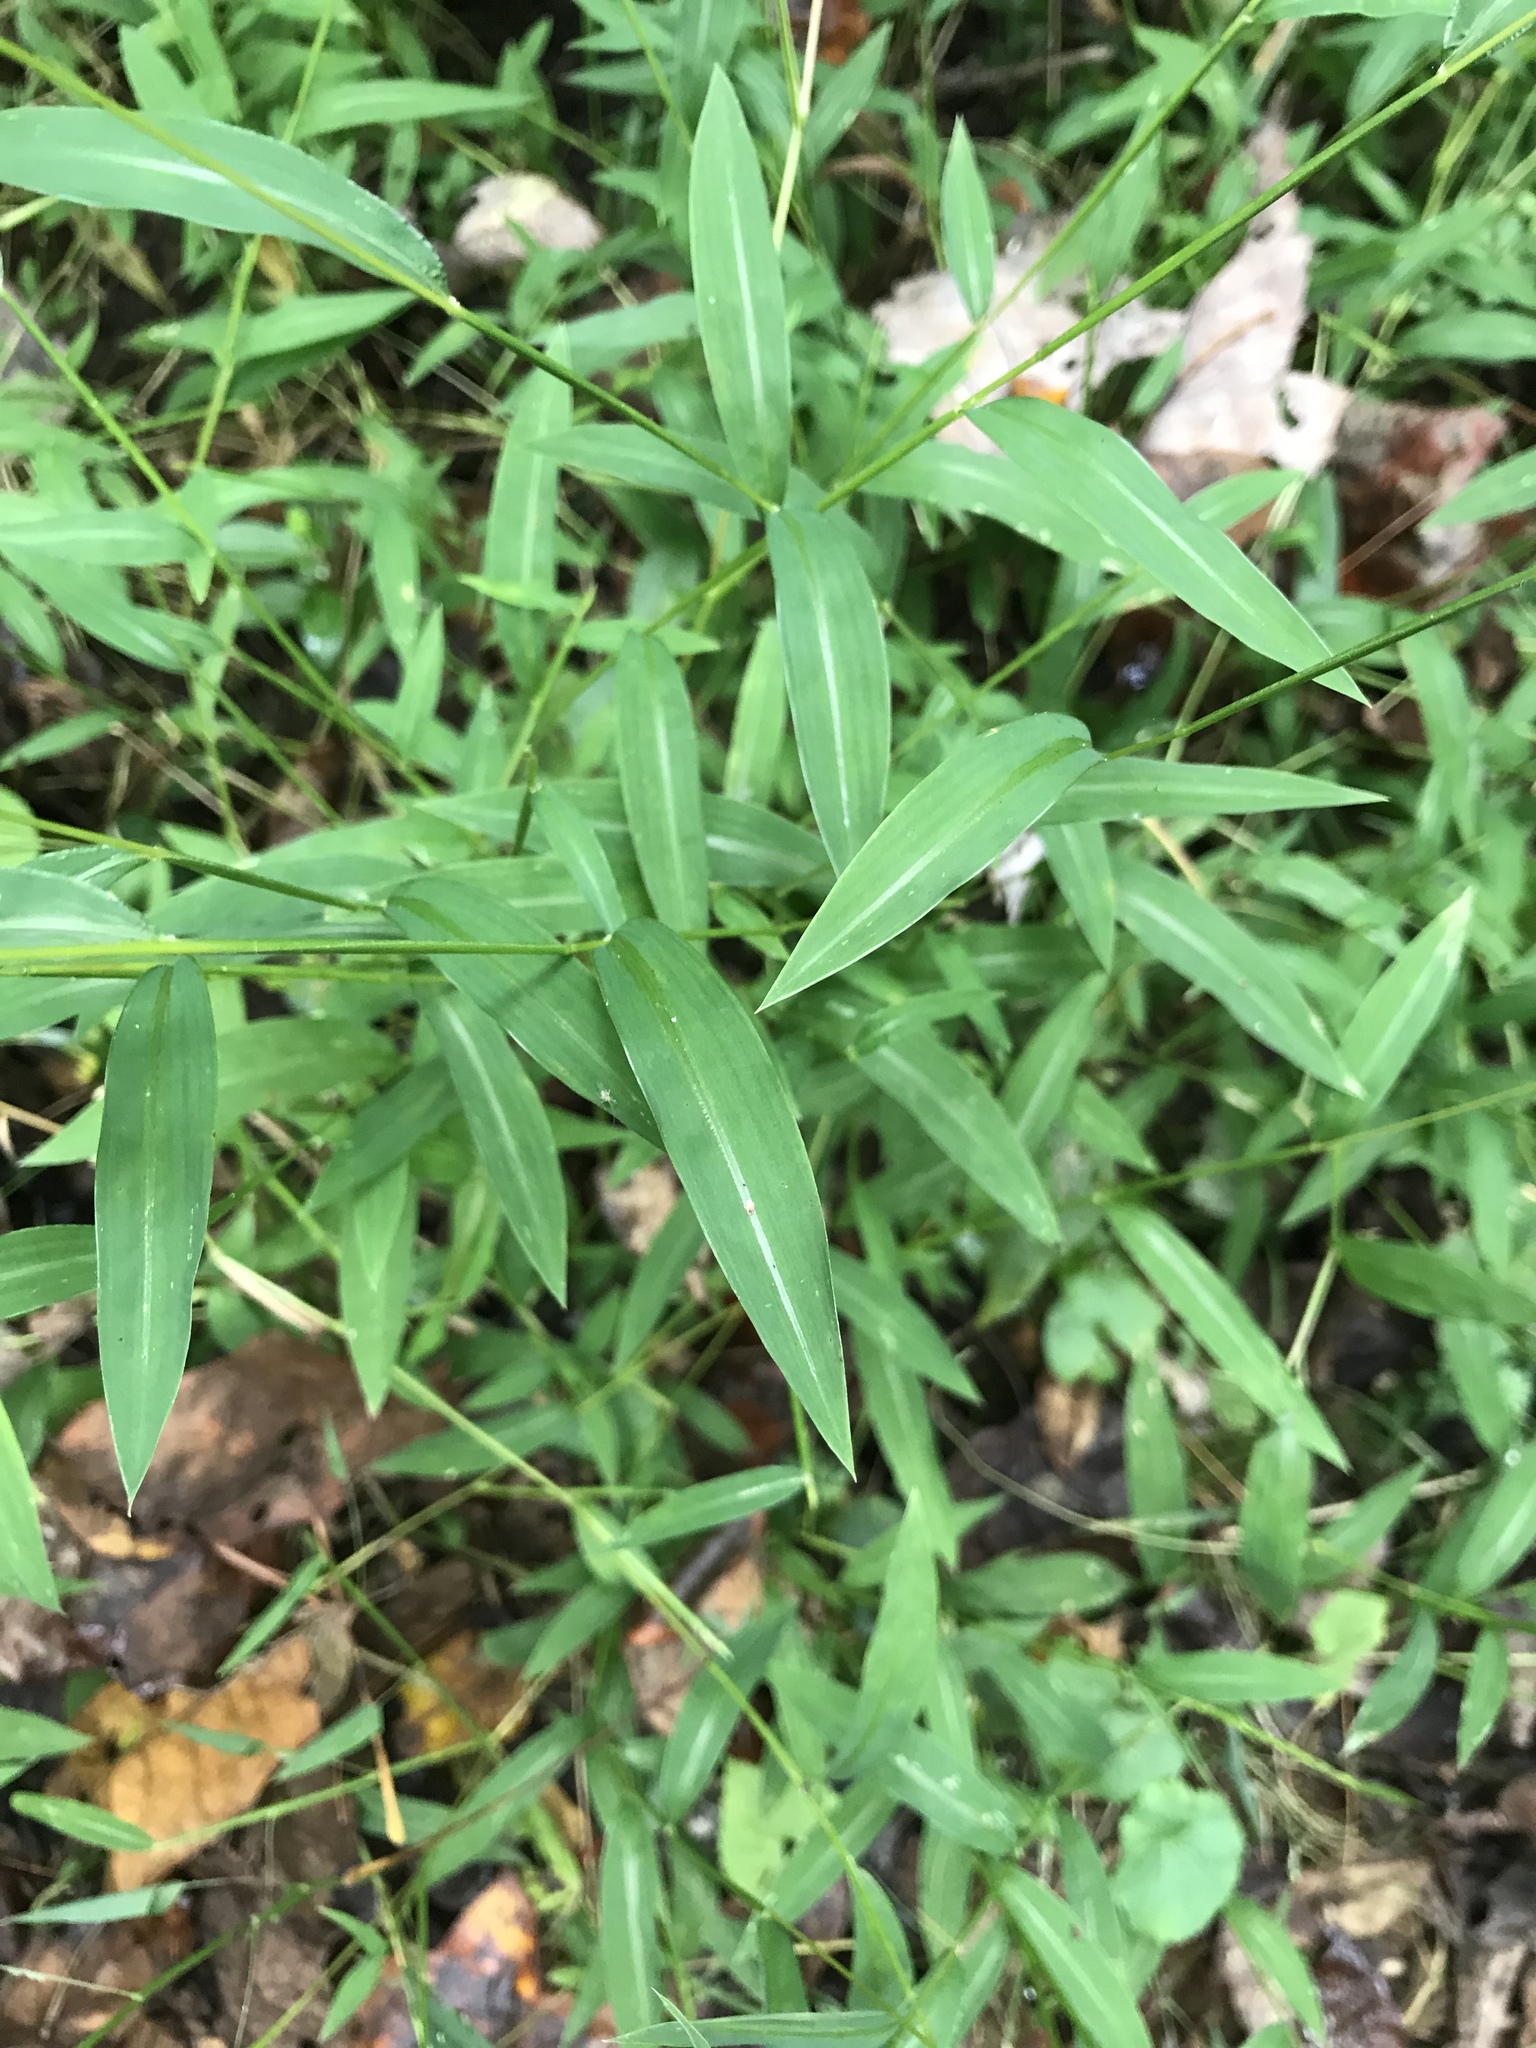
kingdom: Plantae
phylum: Tracheophyta
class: Liliopsida
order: Poales
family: Poaceae
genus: Microstegium
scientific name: Microstegium vimineum
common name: Japanese stiltgrass
